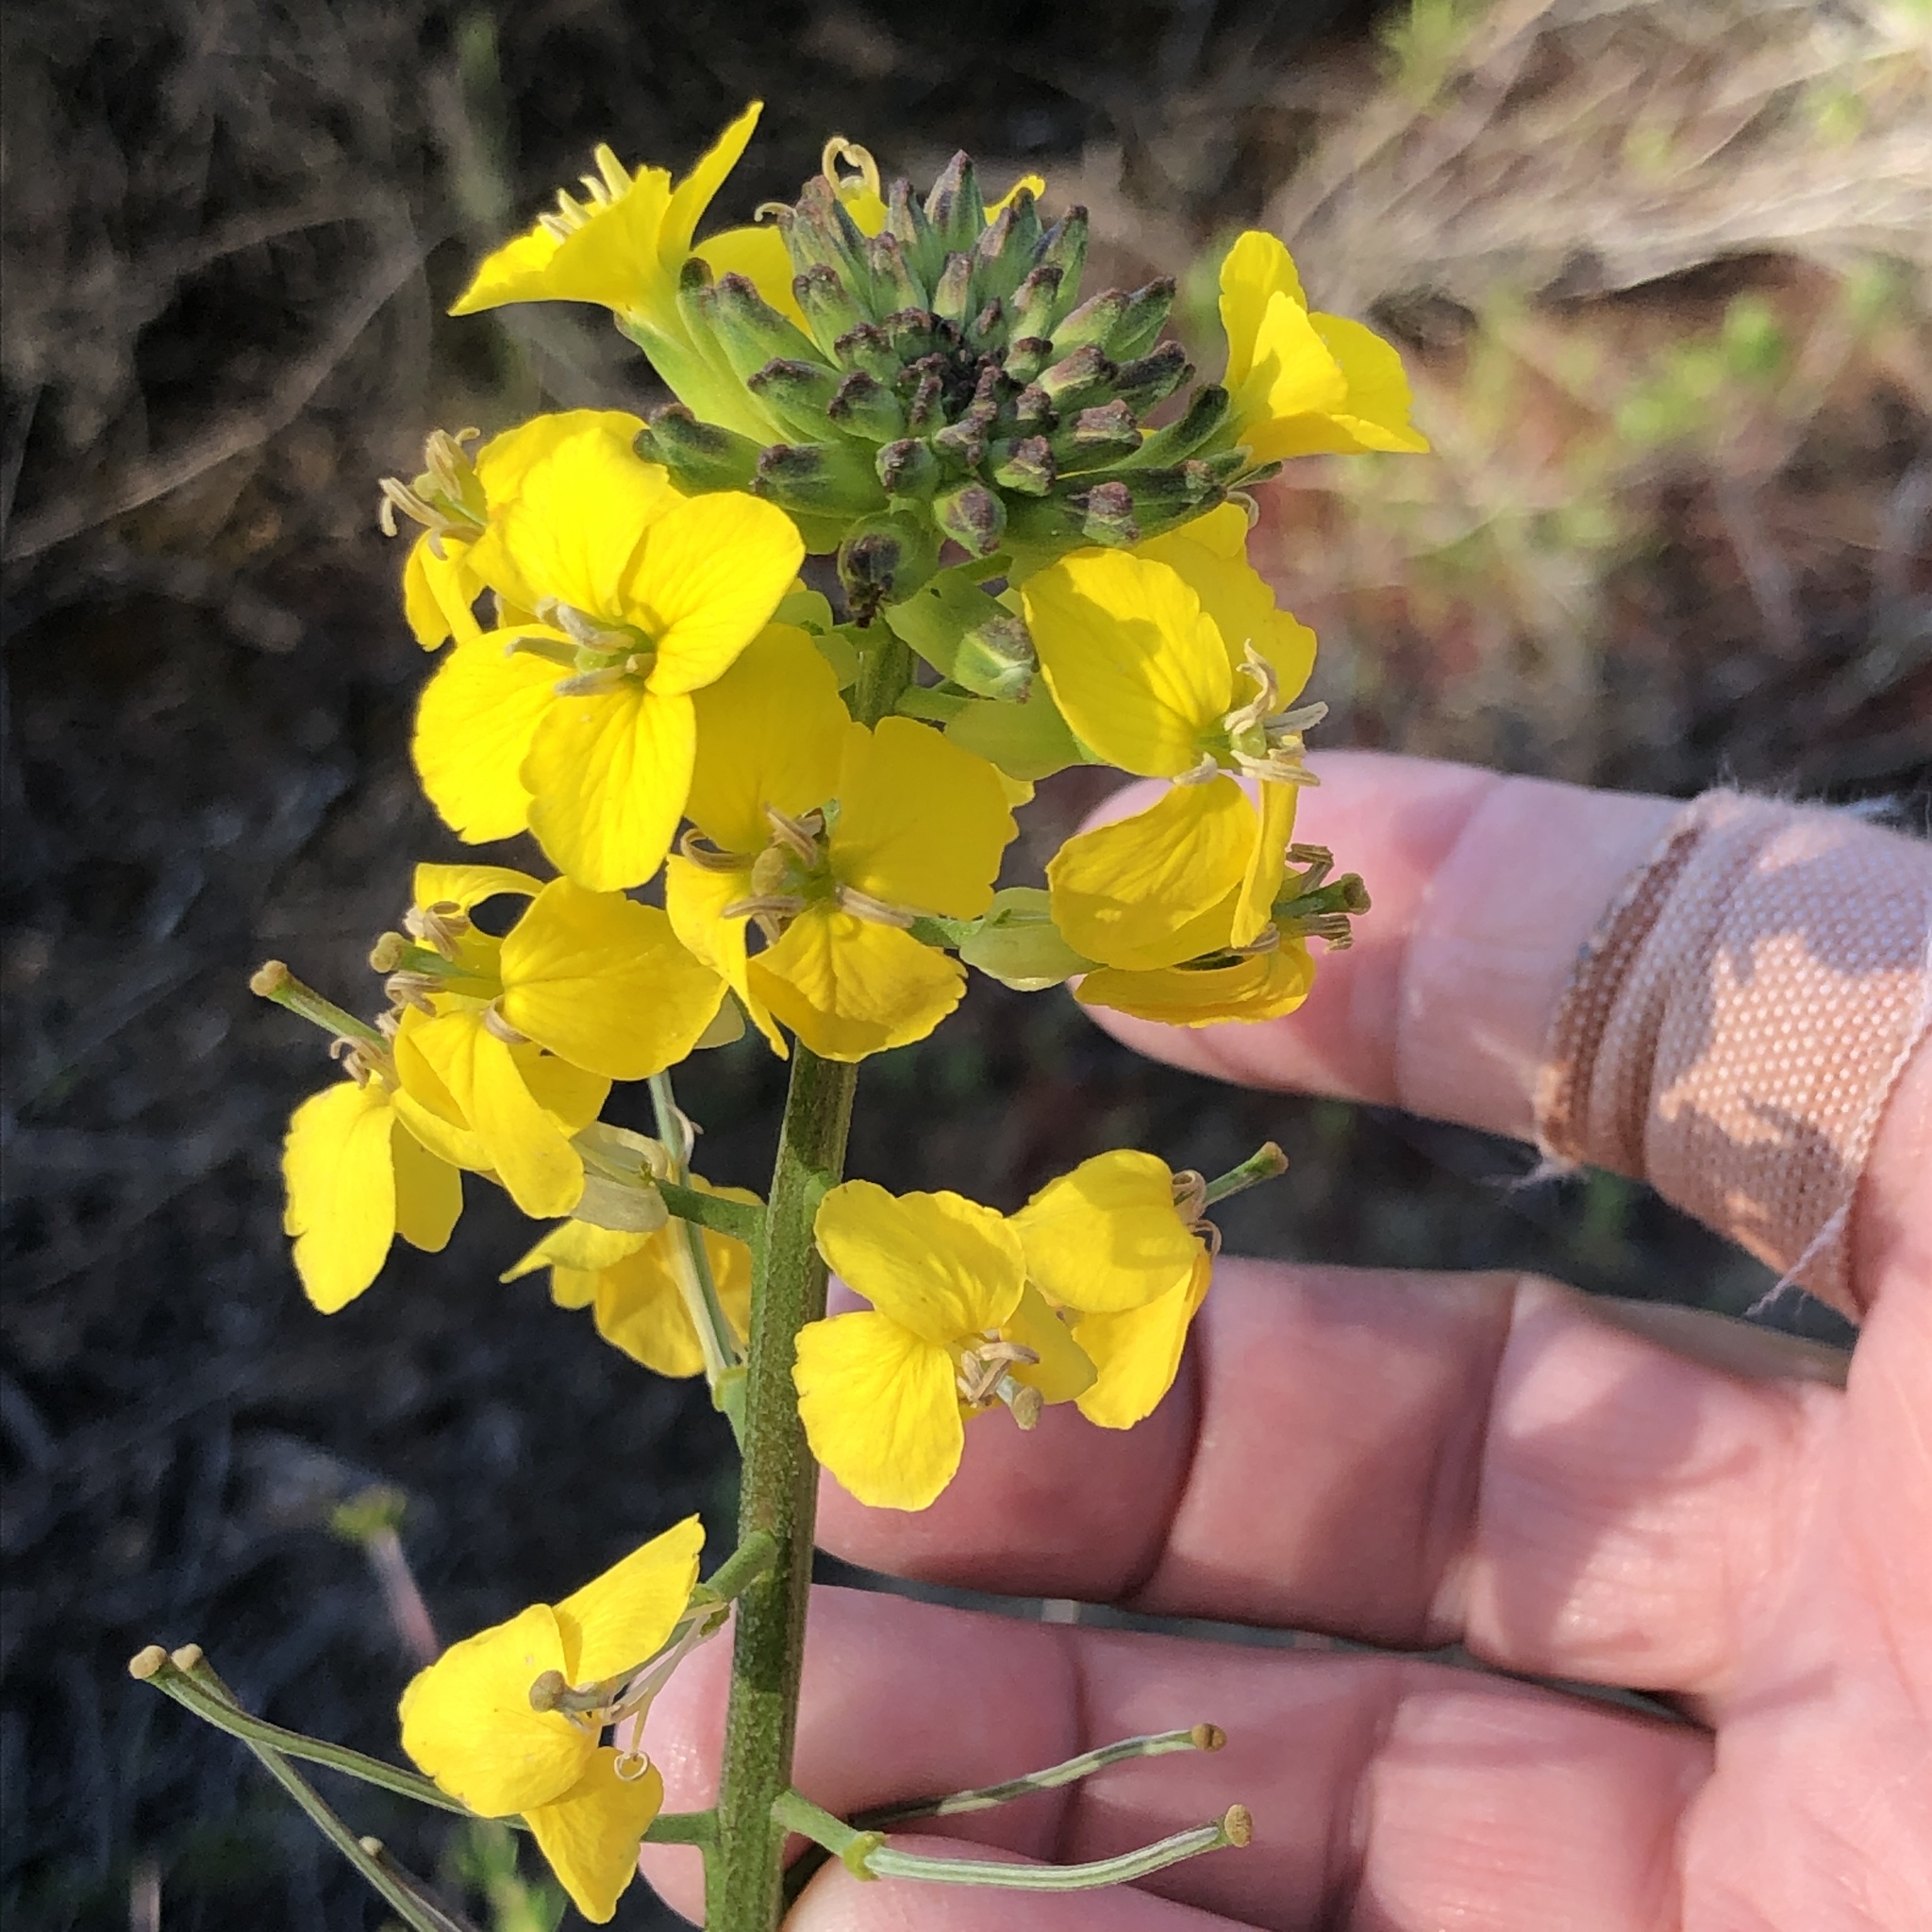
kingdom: Plantae
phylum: Tracheophyta
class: Magnoliopsida
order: Brassicales
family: Brassicaceae
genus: Erysimum
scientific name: Erysimum ammophilum
